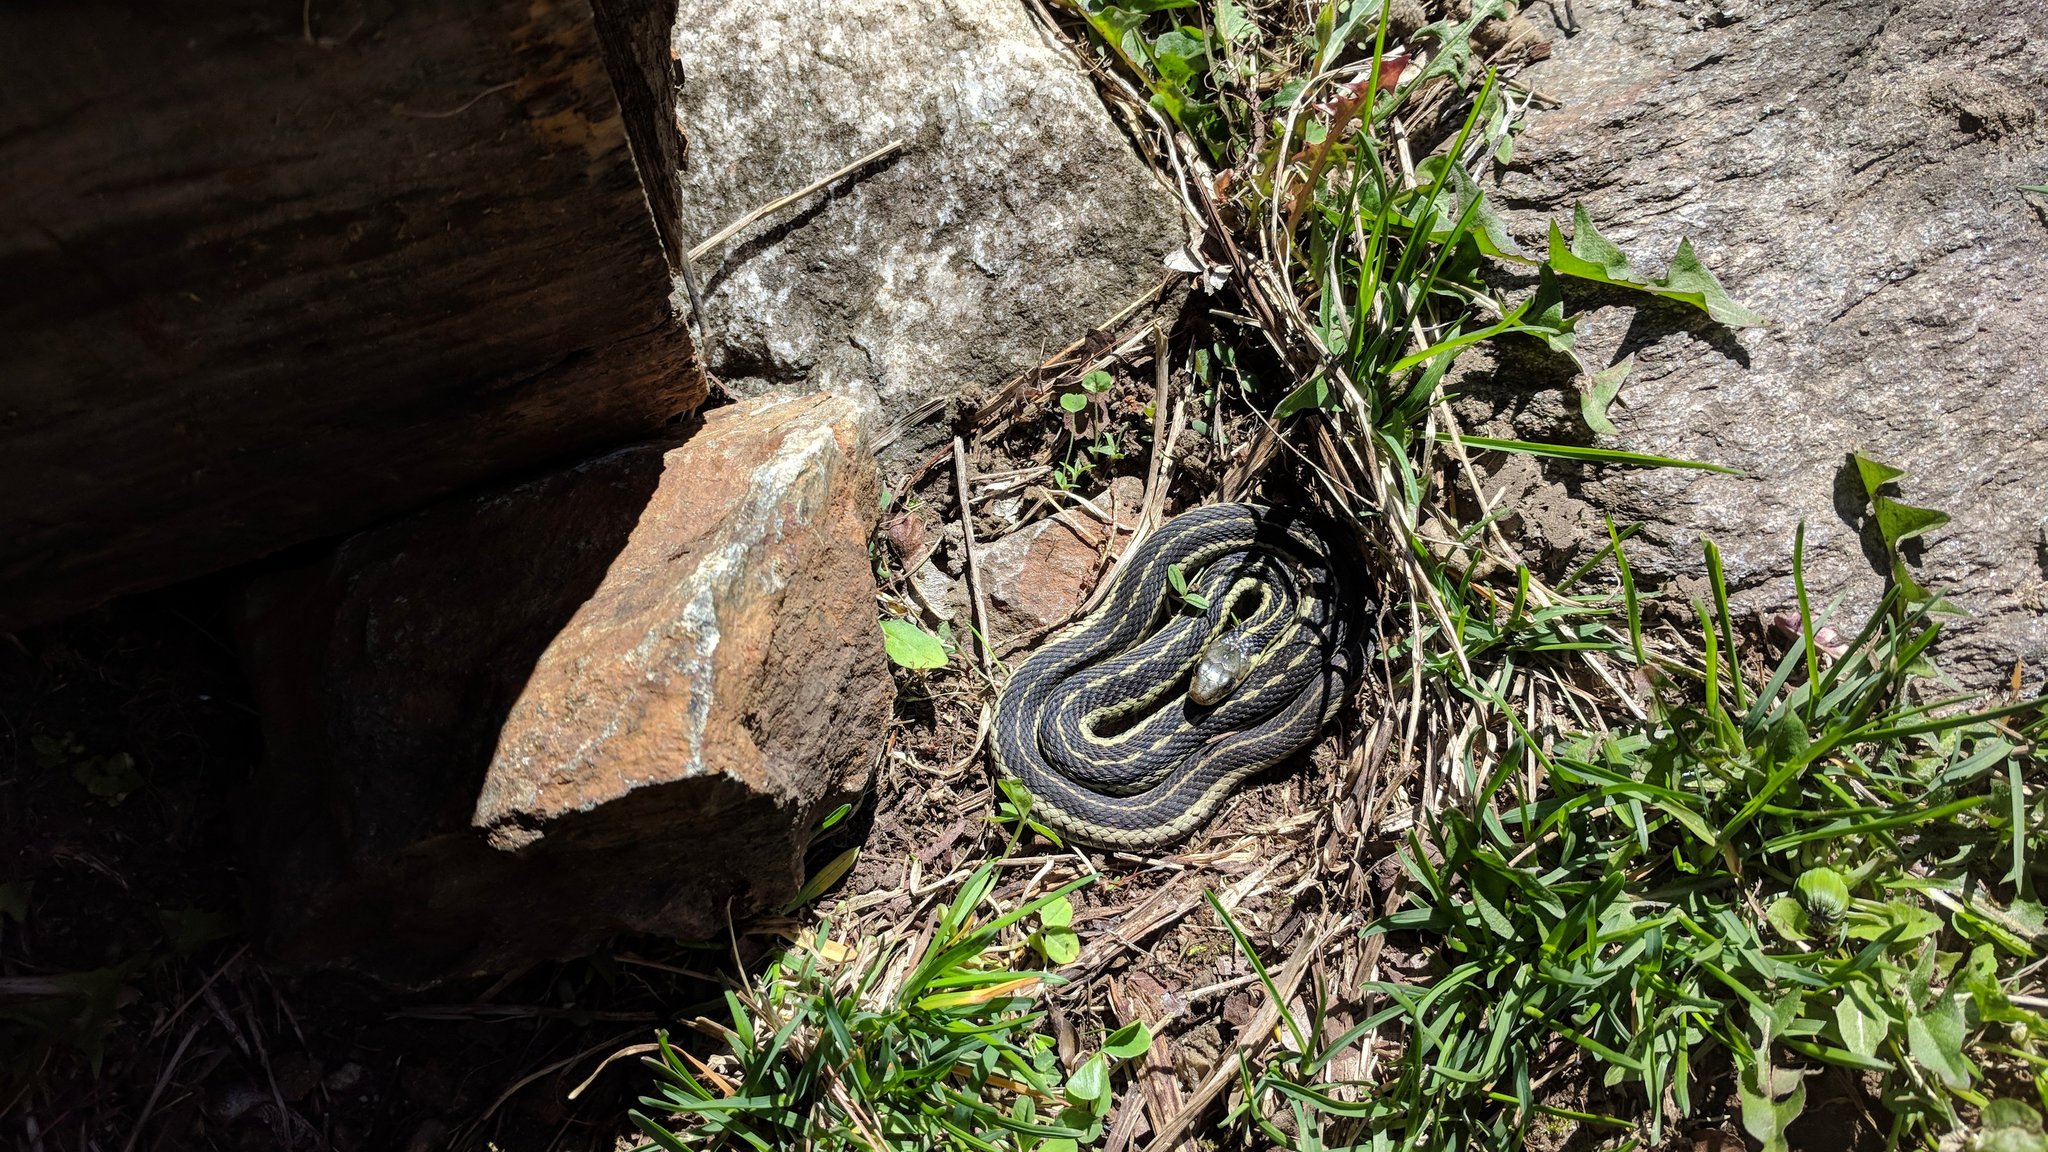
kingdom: Animalia
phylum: Chordata
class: Squamata
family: Colubridae
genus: Thamnophis
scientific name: Thamnophis sirtalis
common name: Common garter snake
